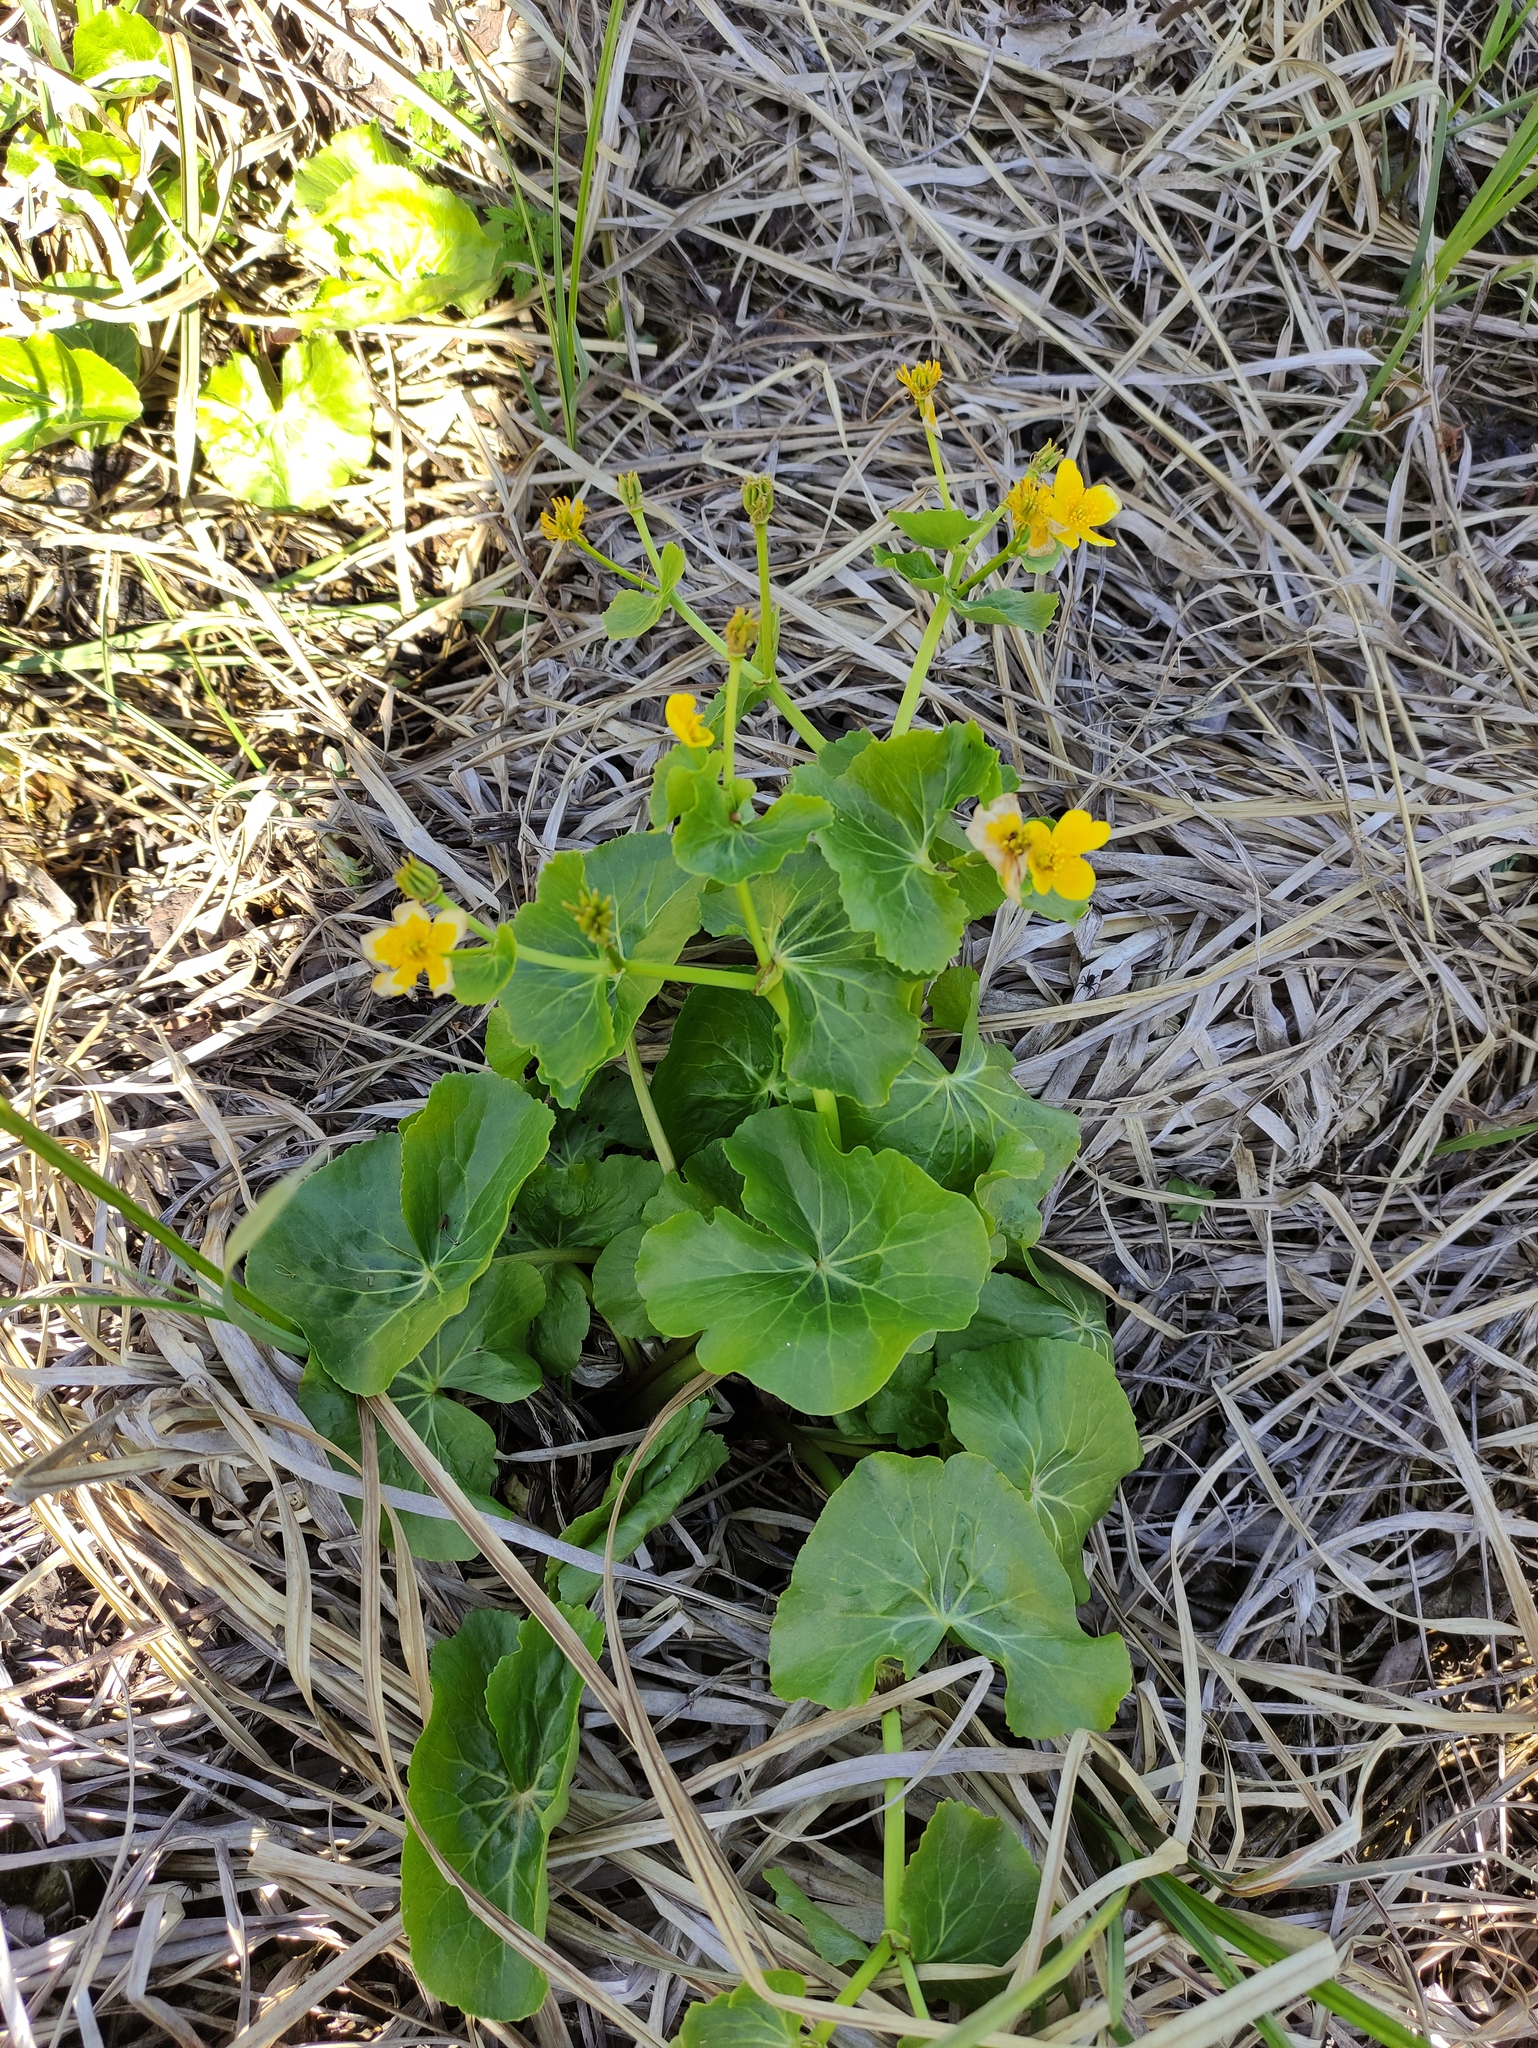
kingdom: Plantae
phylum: Tracheophyta
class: Magnoliopsida
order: Ranunculales
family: Ranunculaceae
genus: Caltha
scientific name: Caltha palustris
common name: Marsh marigold
